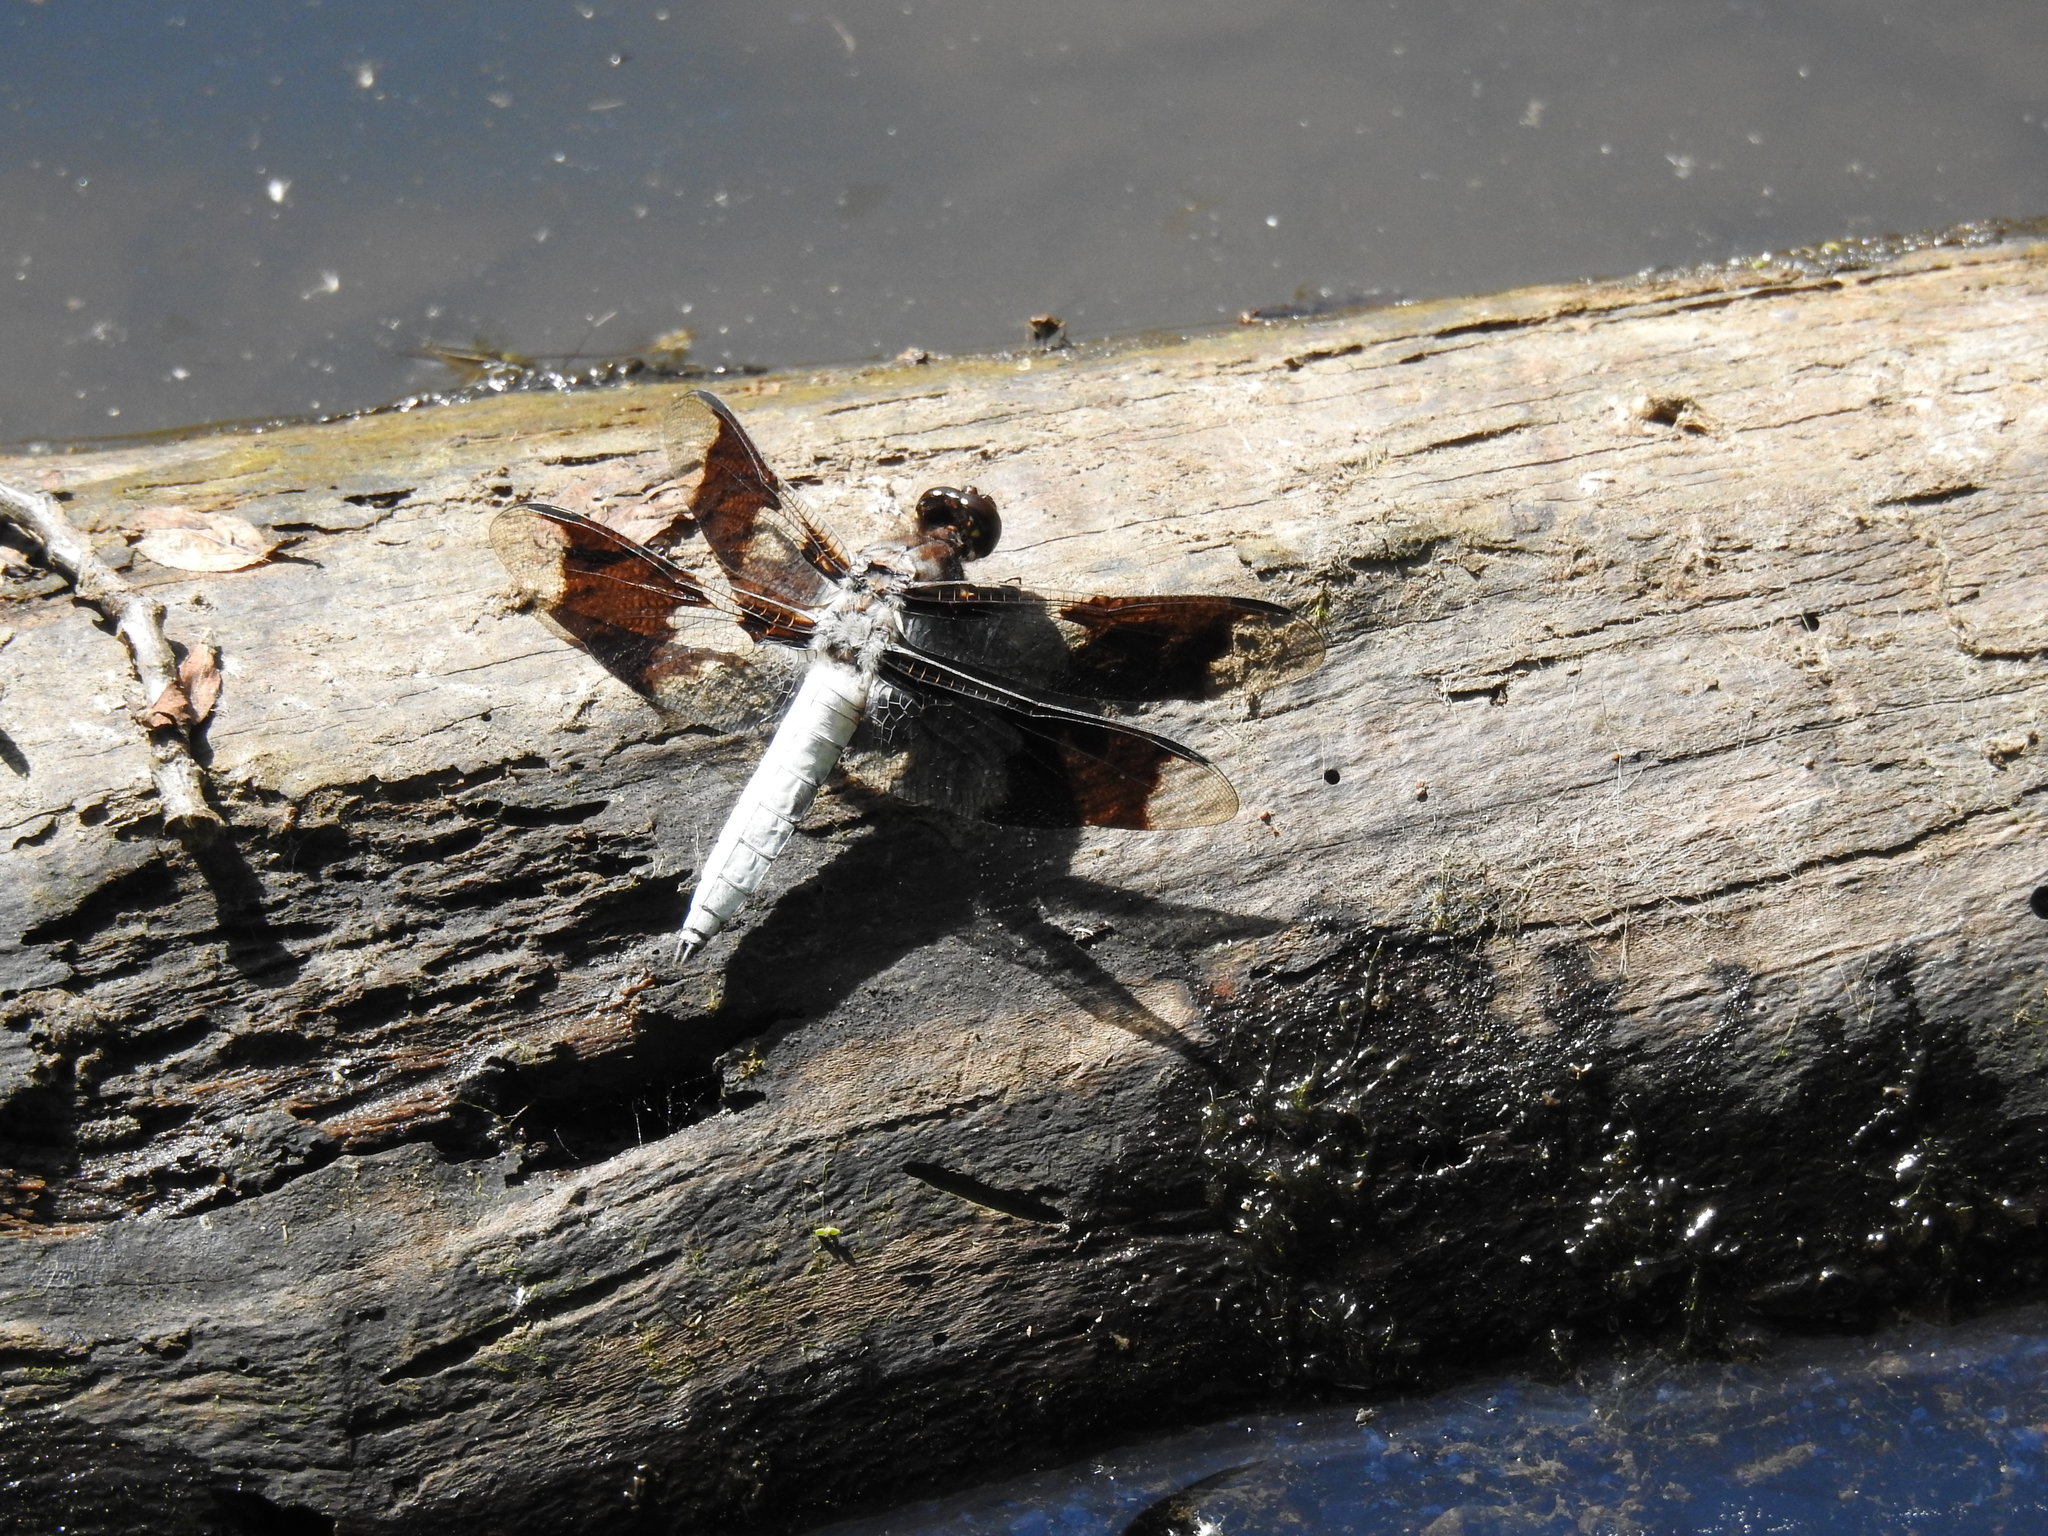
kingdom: Animalia
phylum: Arthropoda
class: Insecta
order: Odonata
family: Libellulidae
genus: Plathemis
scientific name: Plathemis lydia
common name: Common whitetail
